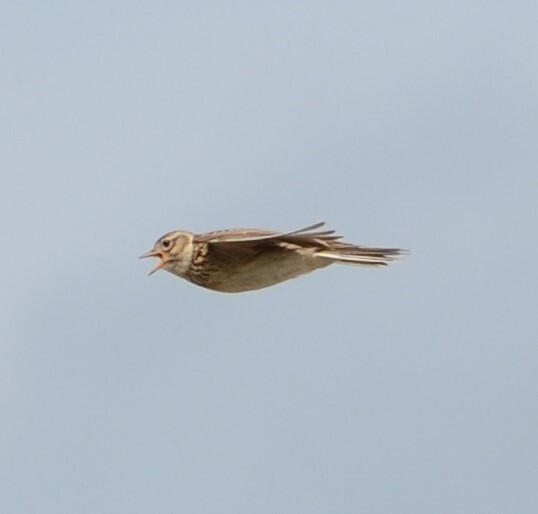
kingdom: Animalia
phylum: Chordata
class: Aves
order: Passeriformes
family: Alaudidae
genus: Alauda
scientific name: Alauda arvensis
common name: Eurasian skylark
